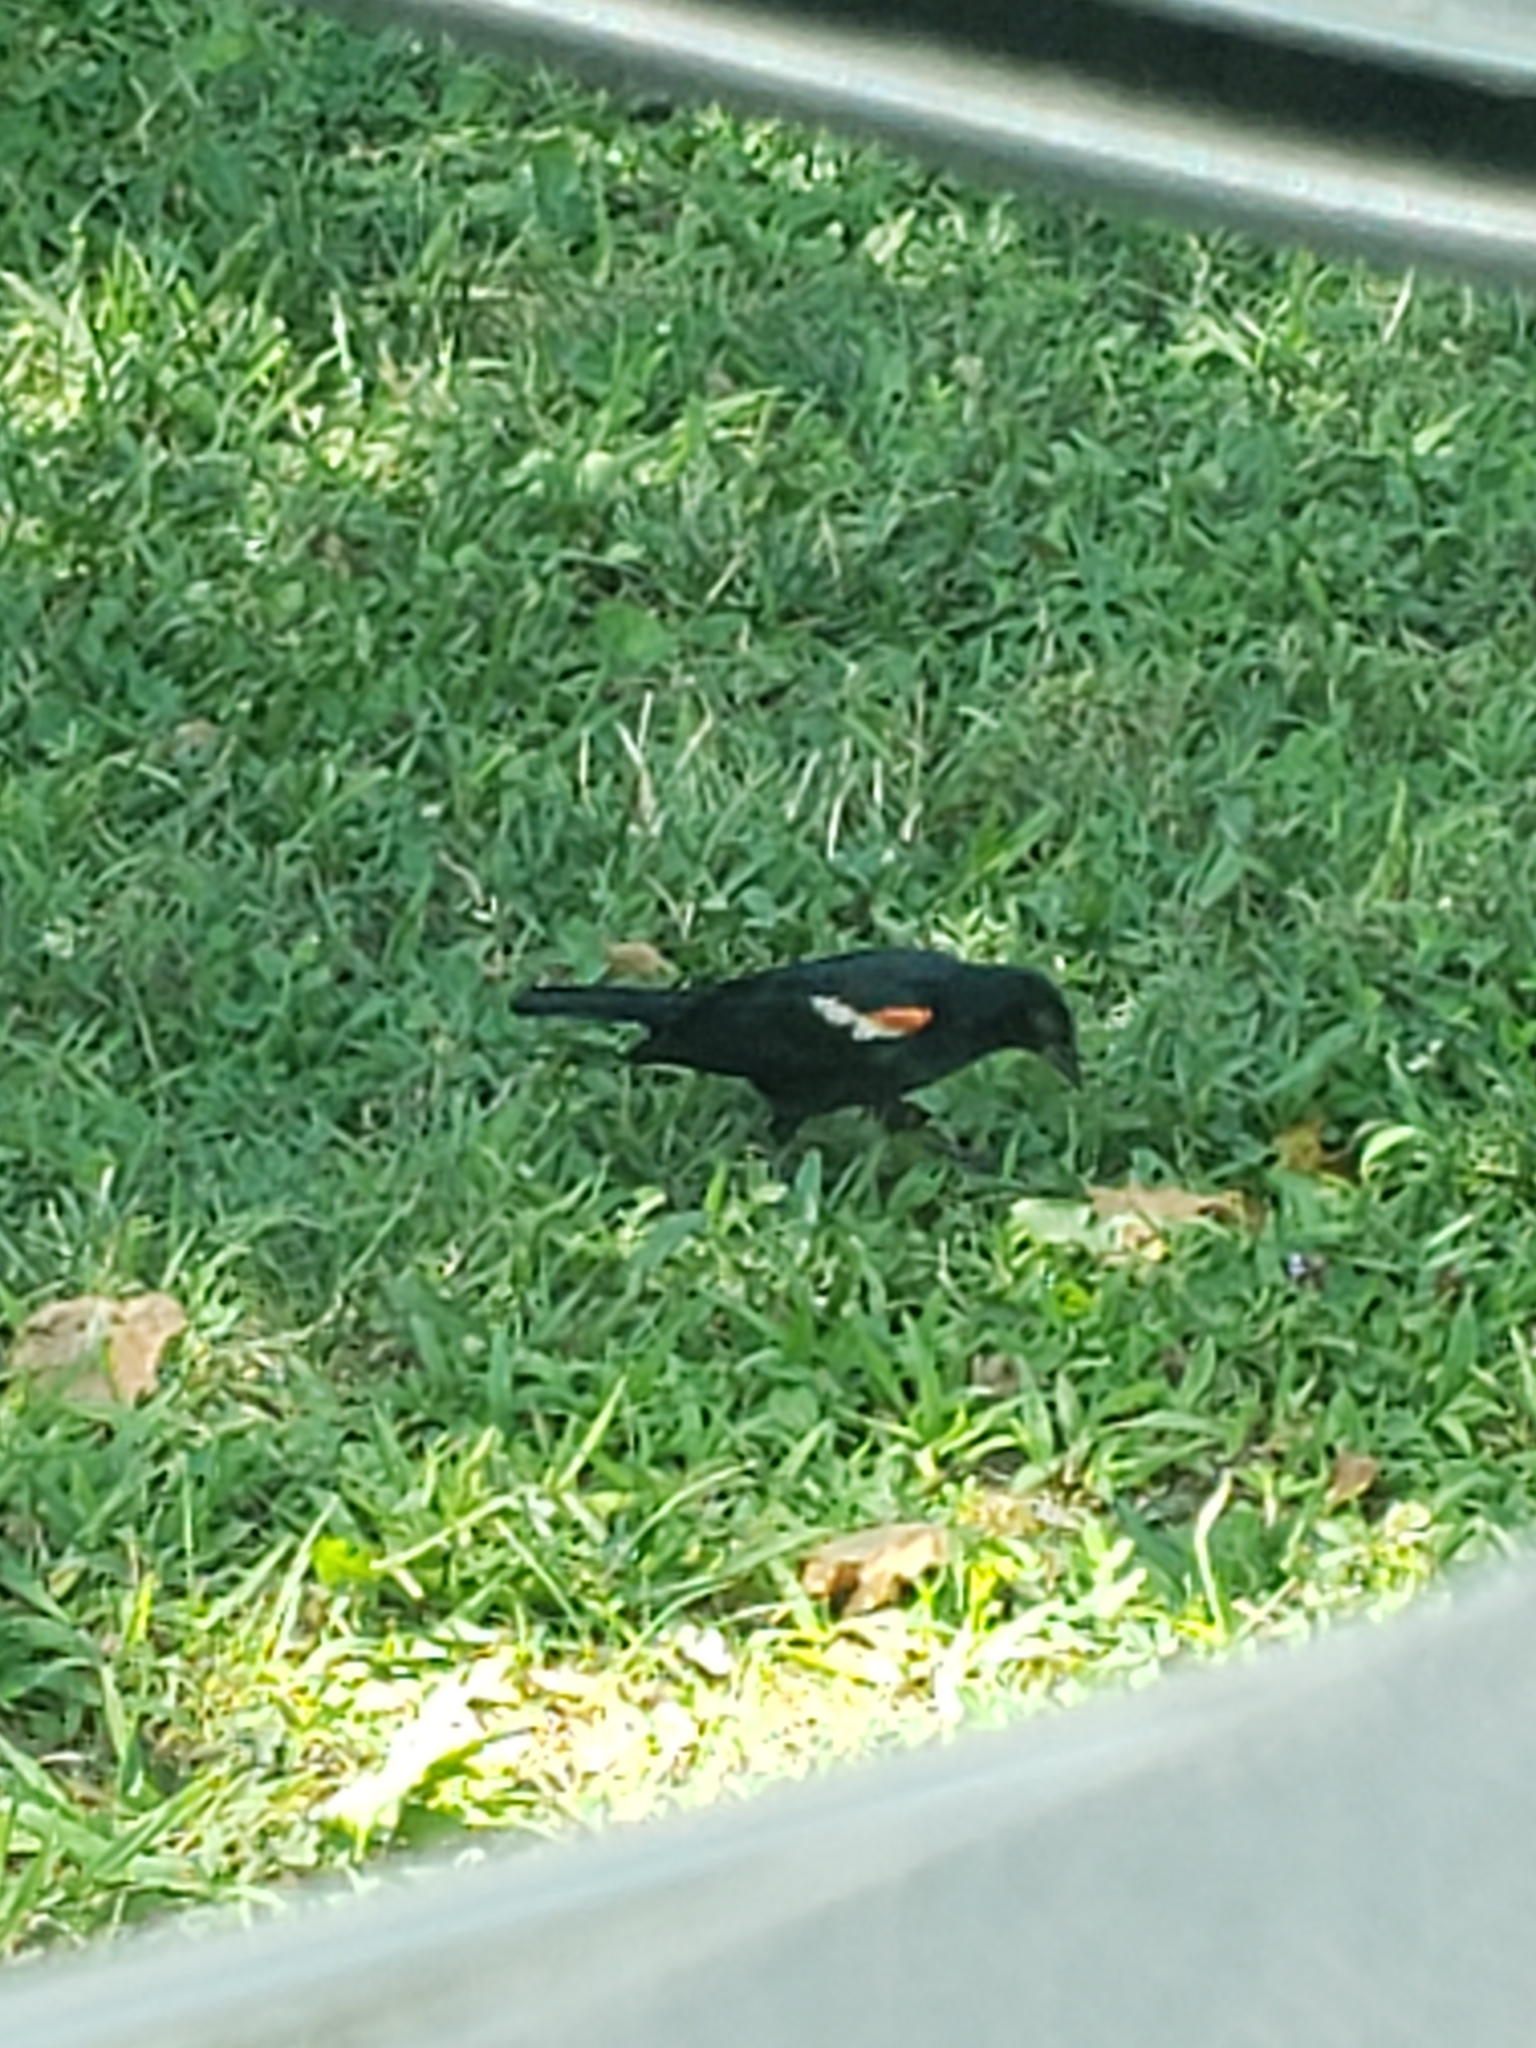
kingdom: Animalia
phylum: Chordata
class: Aves
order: Passeriformes
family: Icteridae
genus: Agelaius
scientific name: Agelaius phoeniceus
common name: Red-winged blackbird
